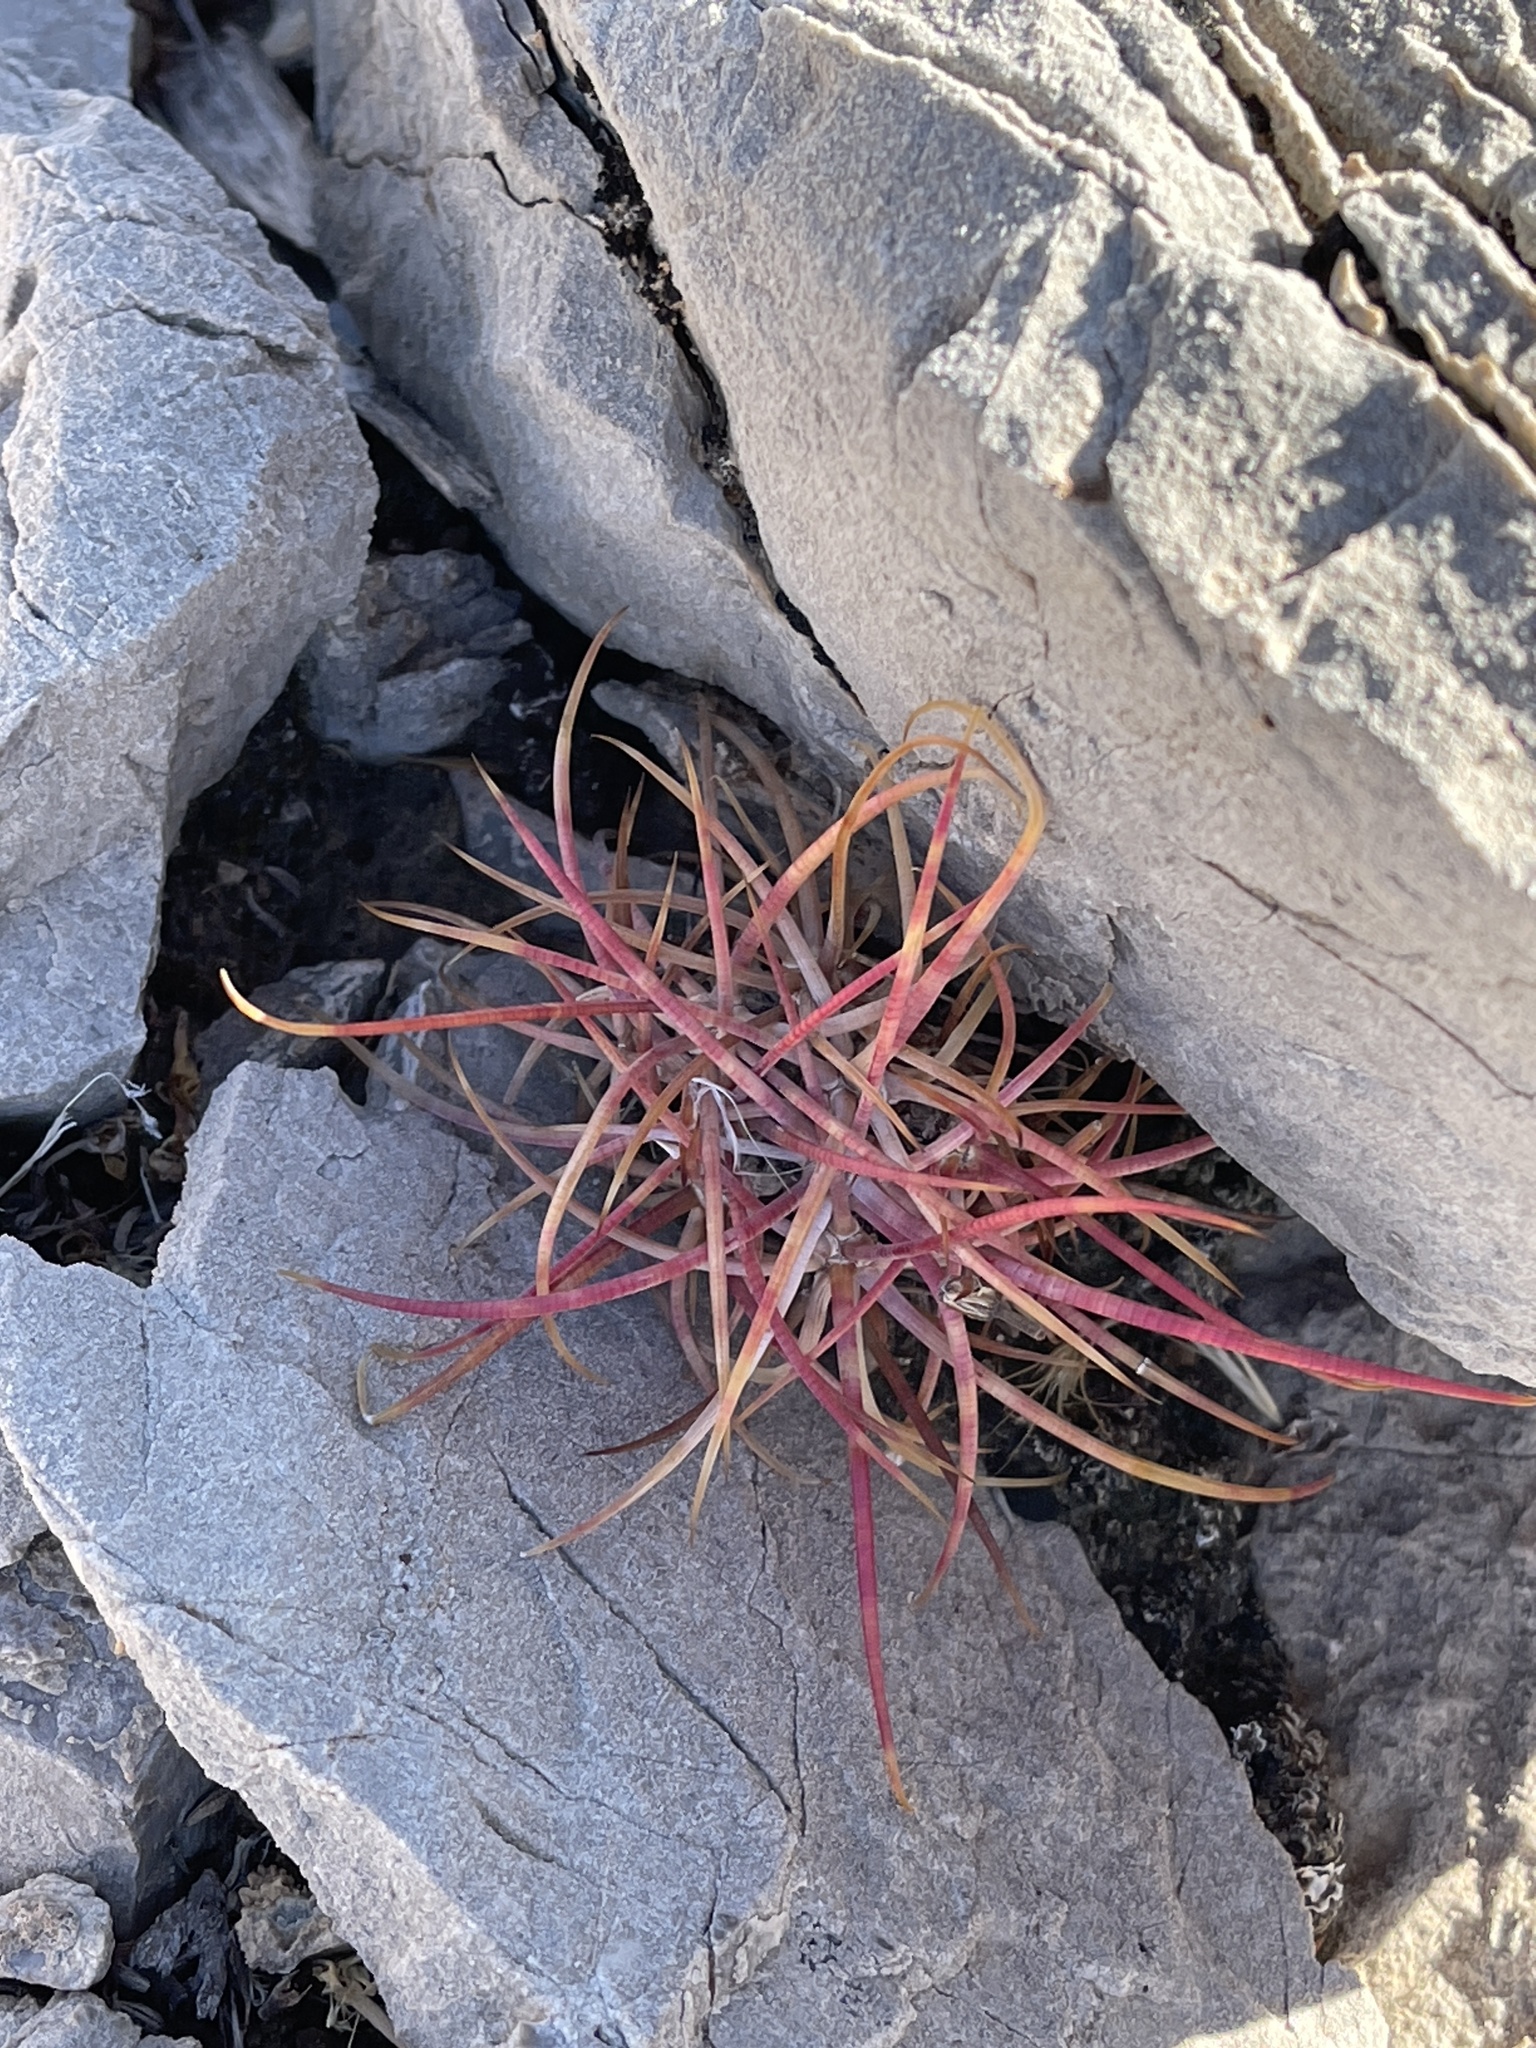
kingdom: Plantae
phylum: Tracheophyta
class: Magnoliopsida
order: Caryophyllales
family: Cactaceae
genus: Ferocactus
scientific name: Ferocactus cylindraceus
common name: California barrel cactus
